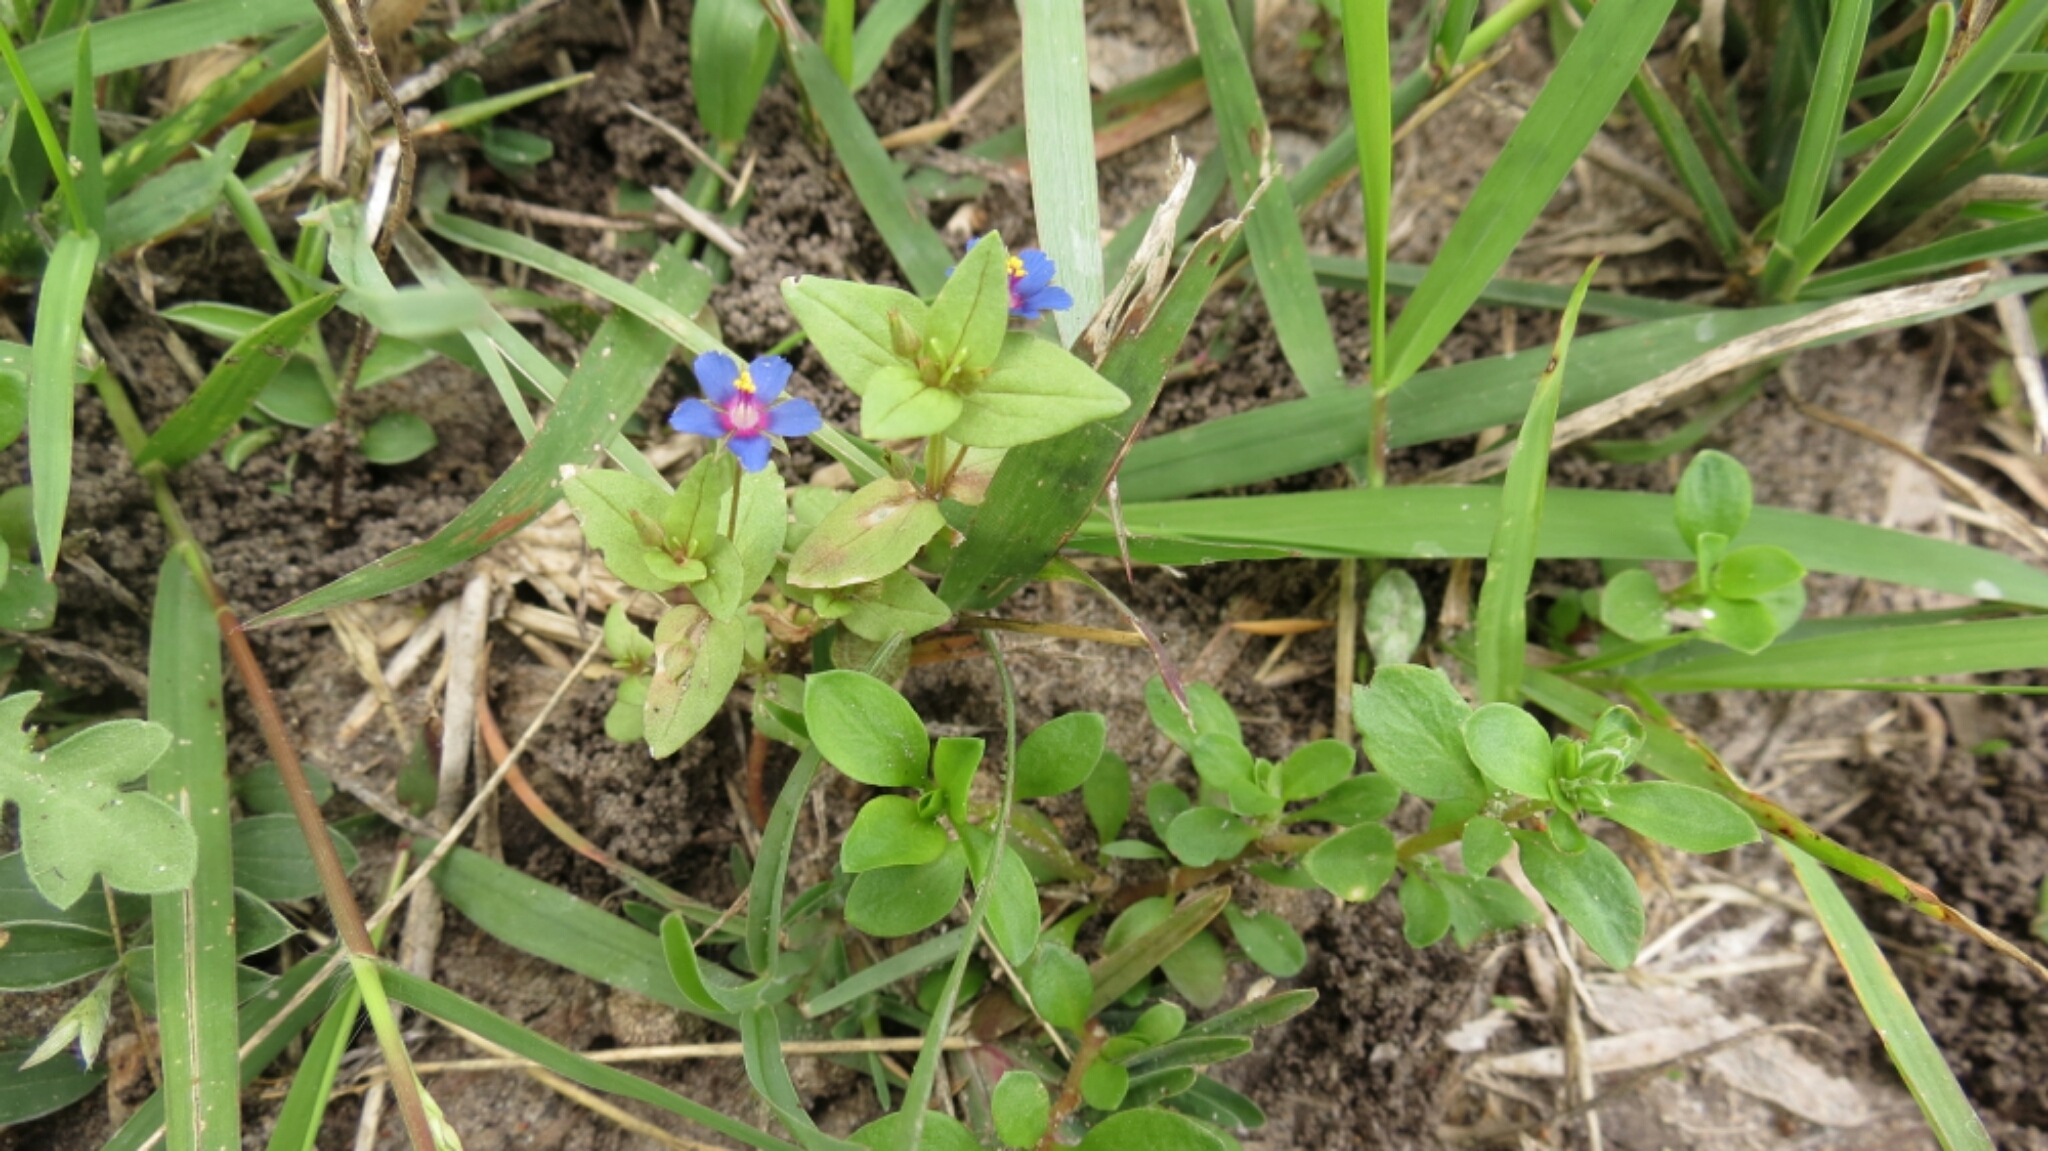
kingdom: Plantae
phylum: Tracheophyta
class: Magnoliopsida
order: Ericales
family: Primulaceae
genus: Lysimachia
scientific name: Lysimachia arvensis
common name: Scarlet pimpernel
